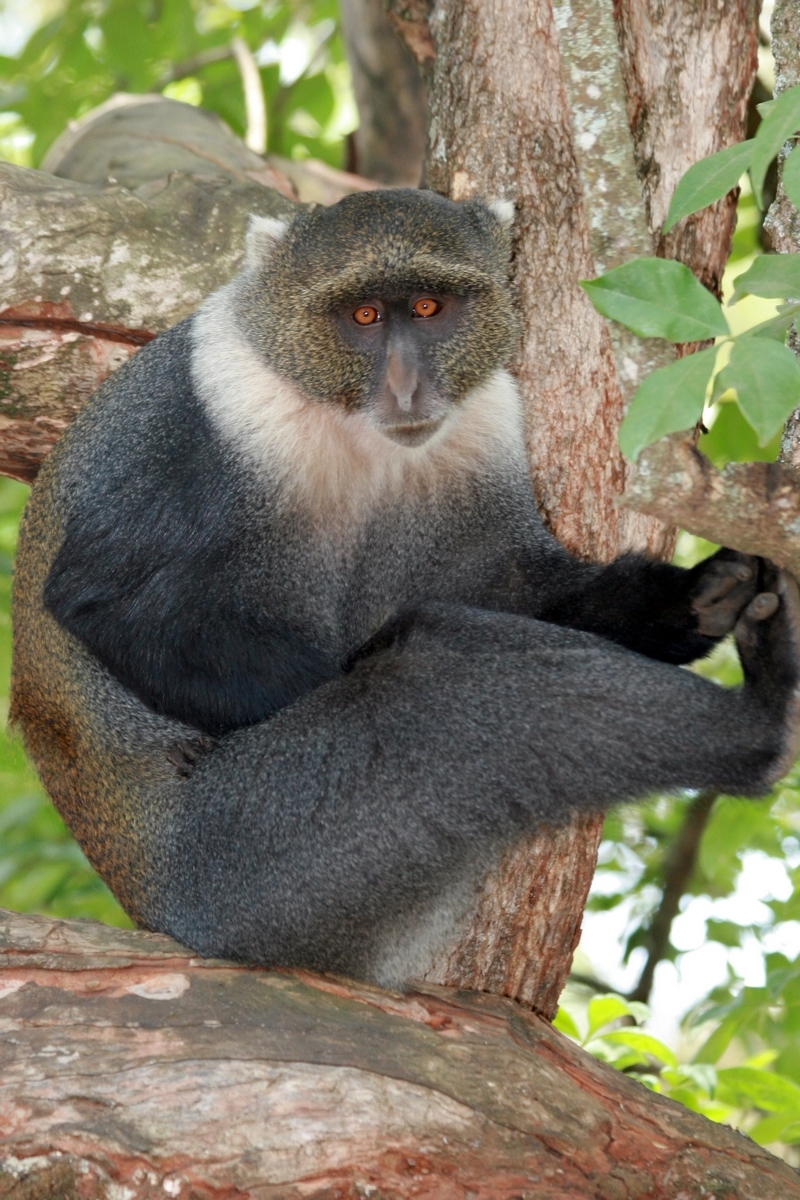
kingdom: Animalia
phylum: Chordata
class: Mammalia
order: Primates
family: Cercopithecidae
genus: Cercopithecus
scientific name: Cercopithecus mitis
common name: Blue monkey
